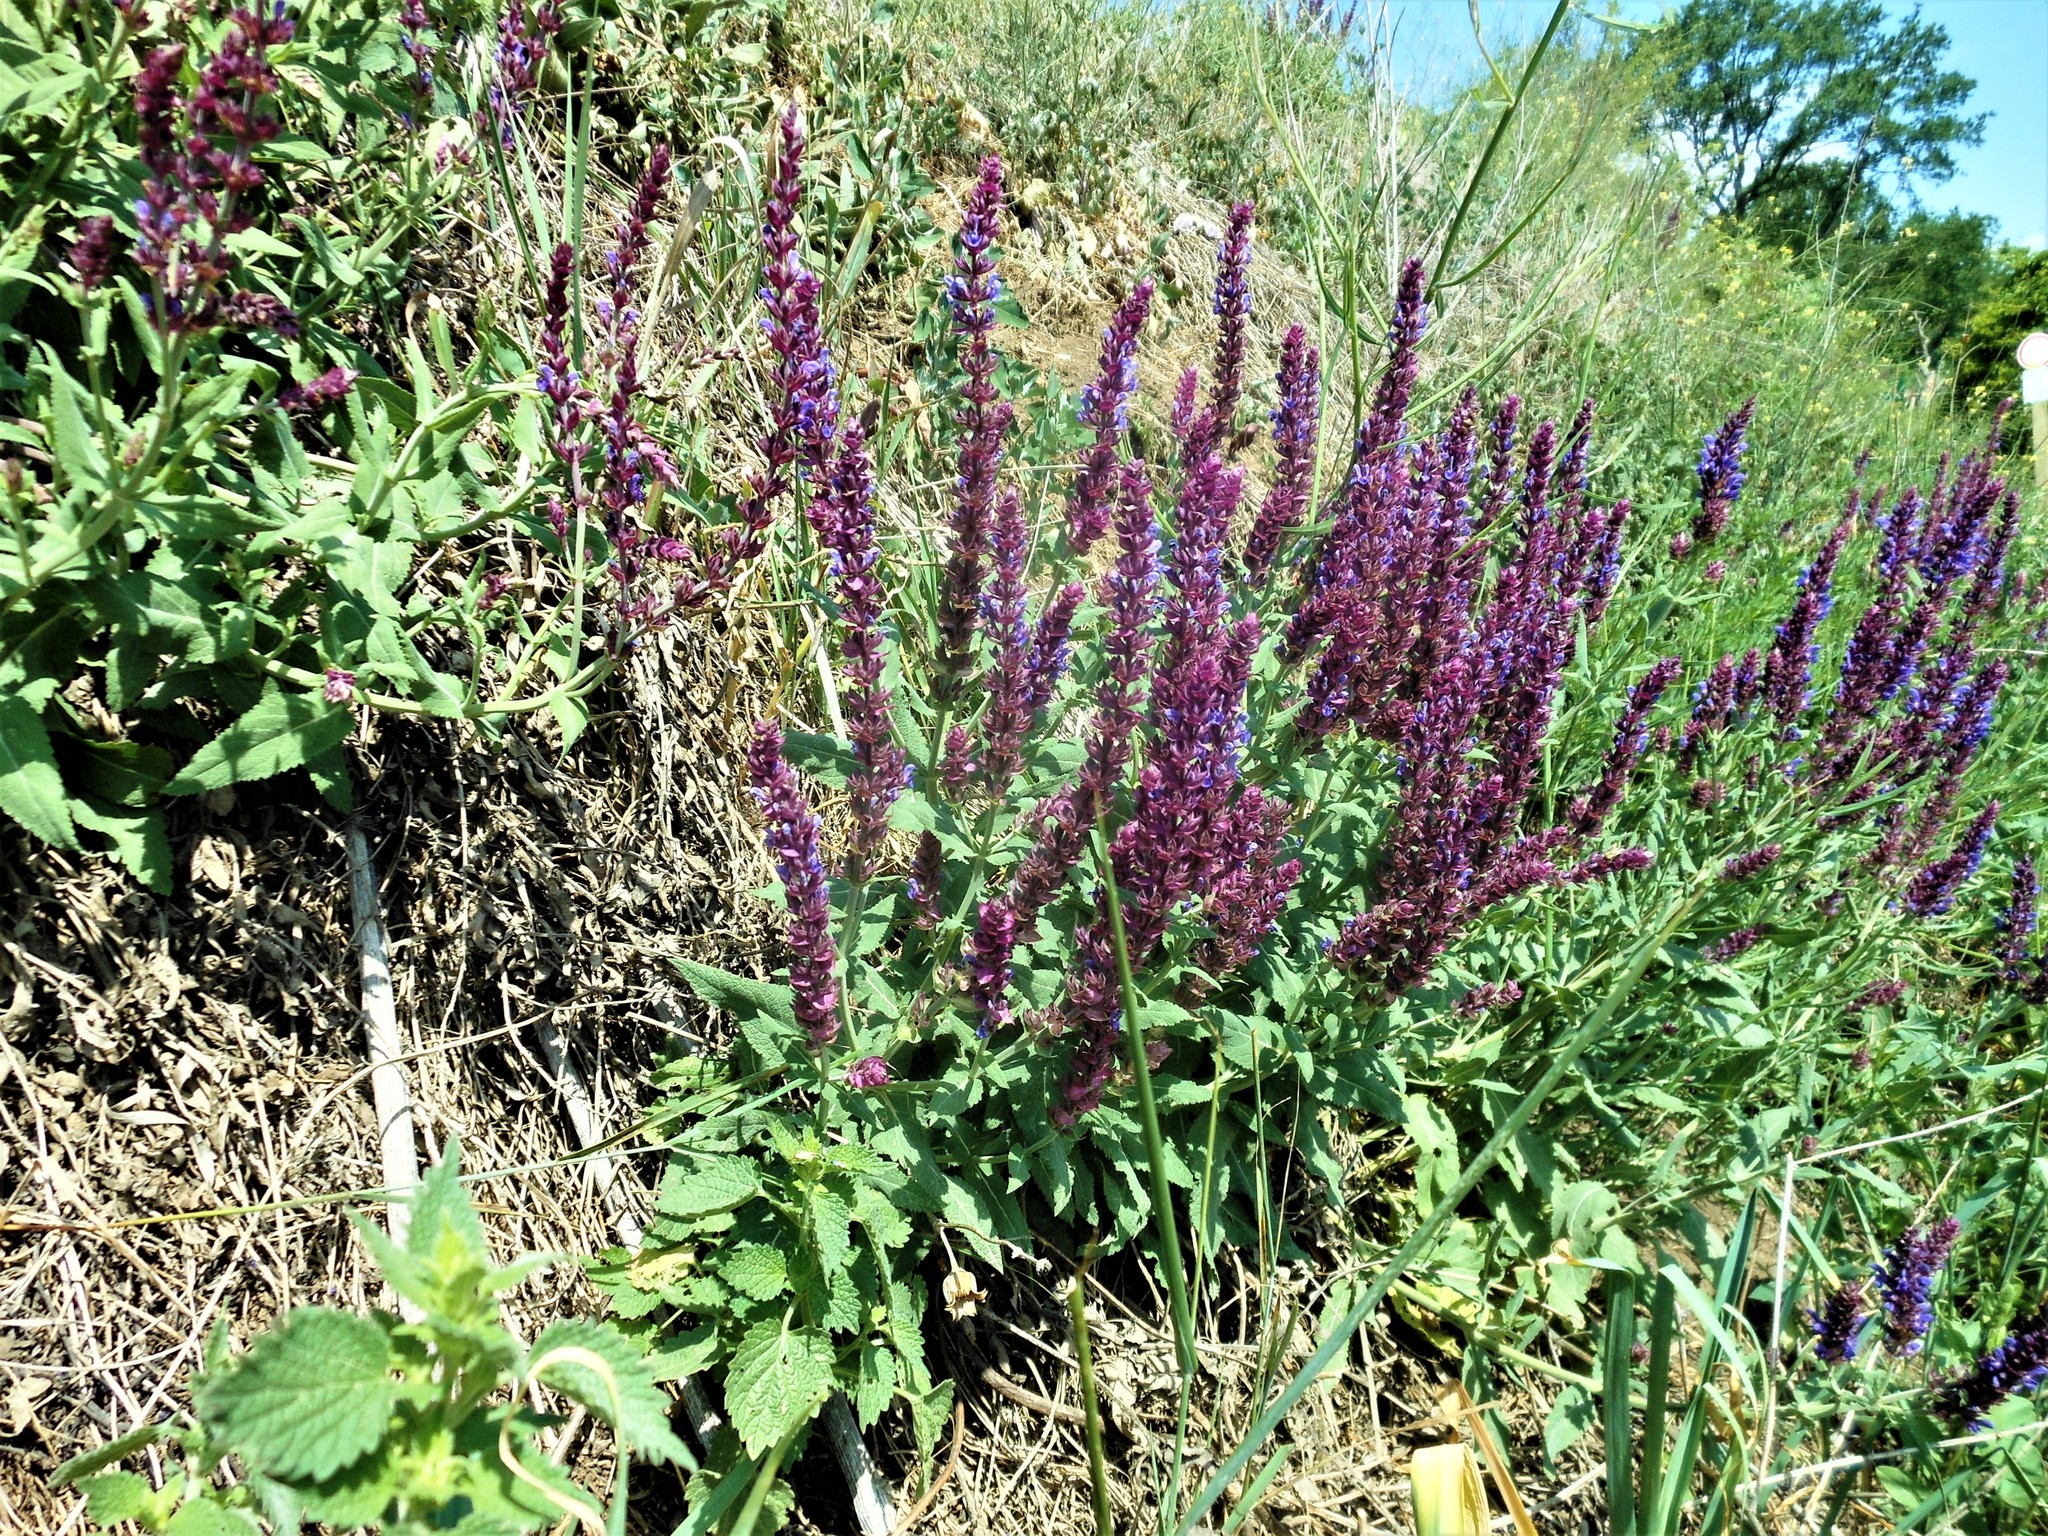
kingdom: Plantae
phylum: Tracheophyta
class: Magnoliopsida
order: Lamiales
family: Lamiaceae
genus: Salvia
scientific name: Salvia nemorosa
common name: Balkan clary
